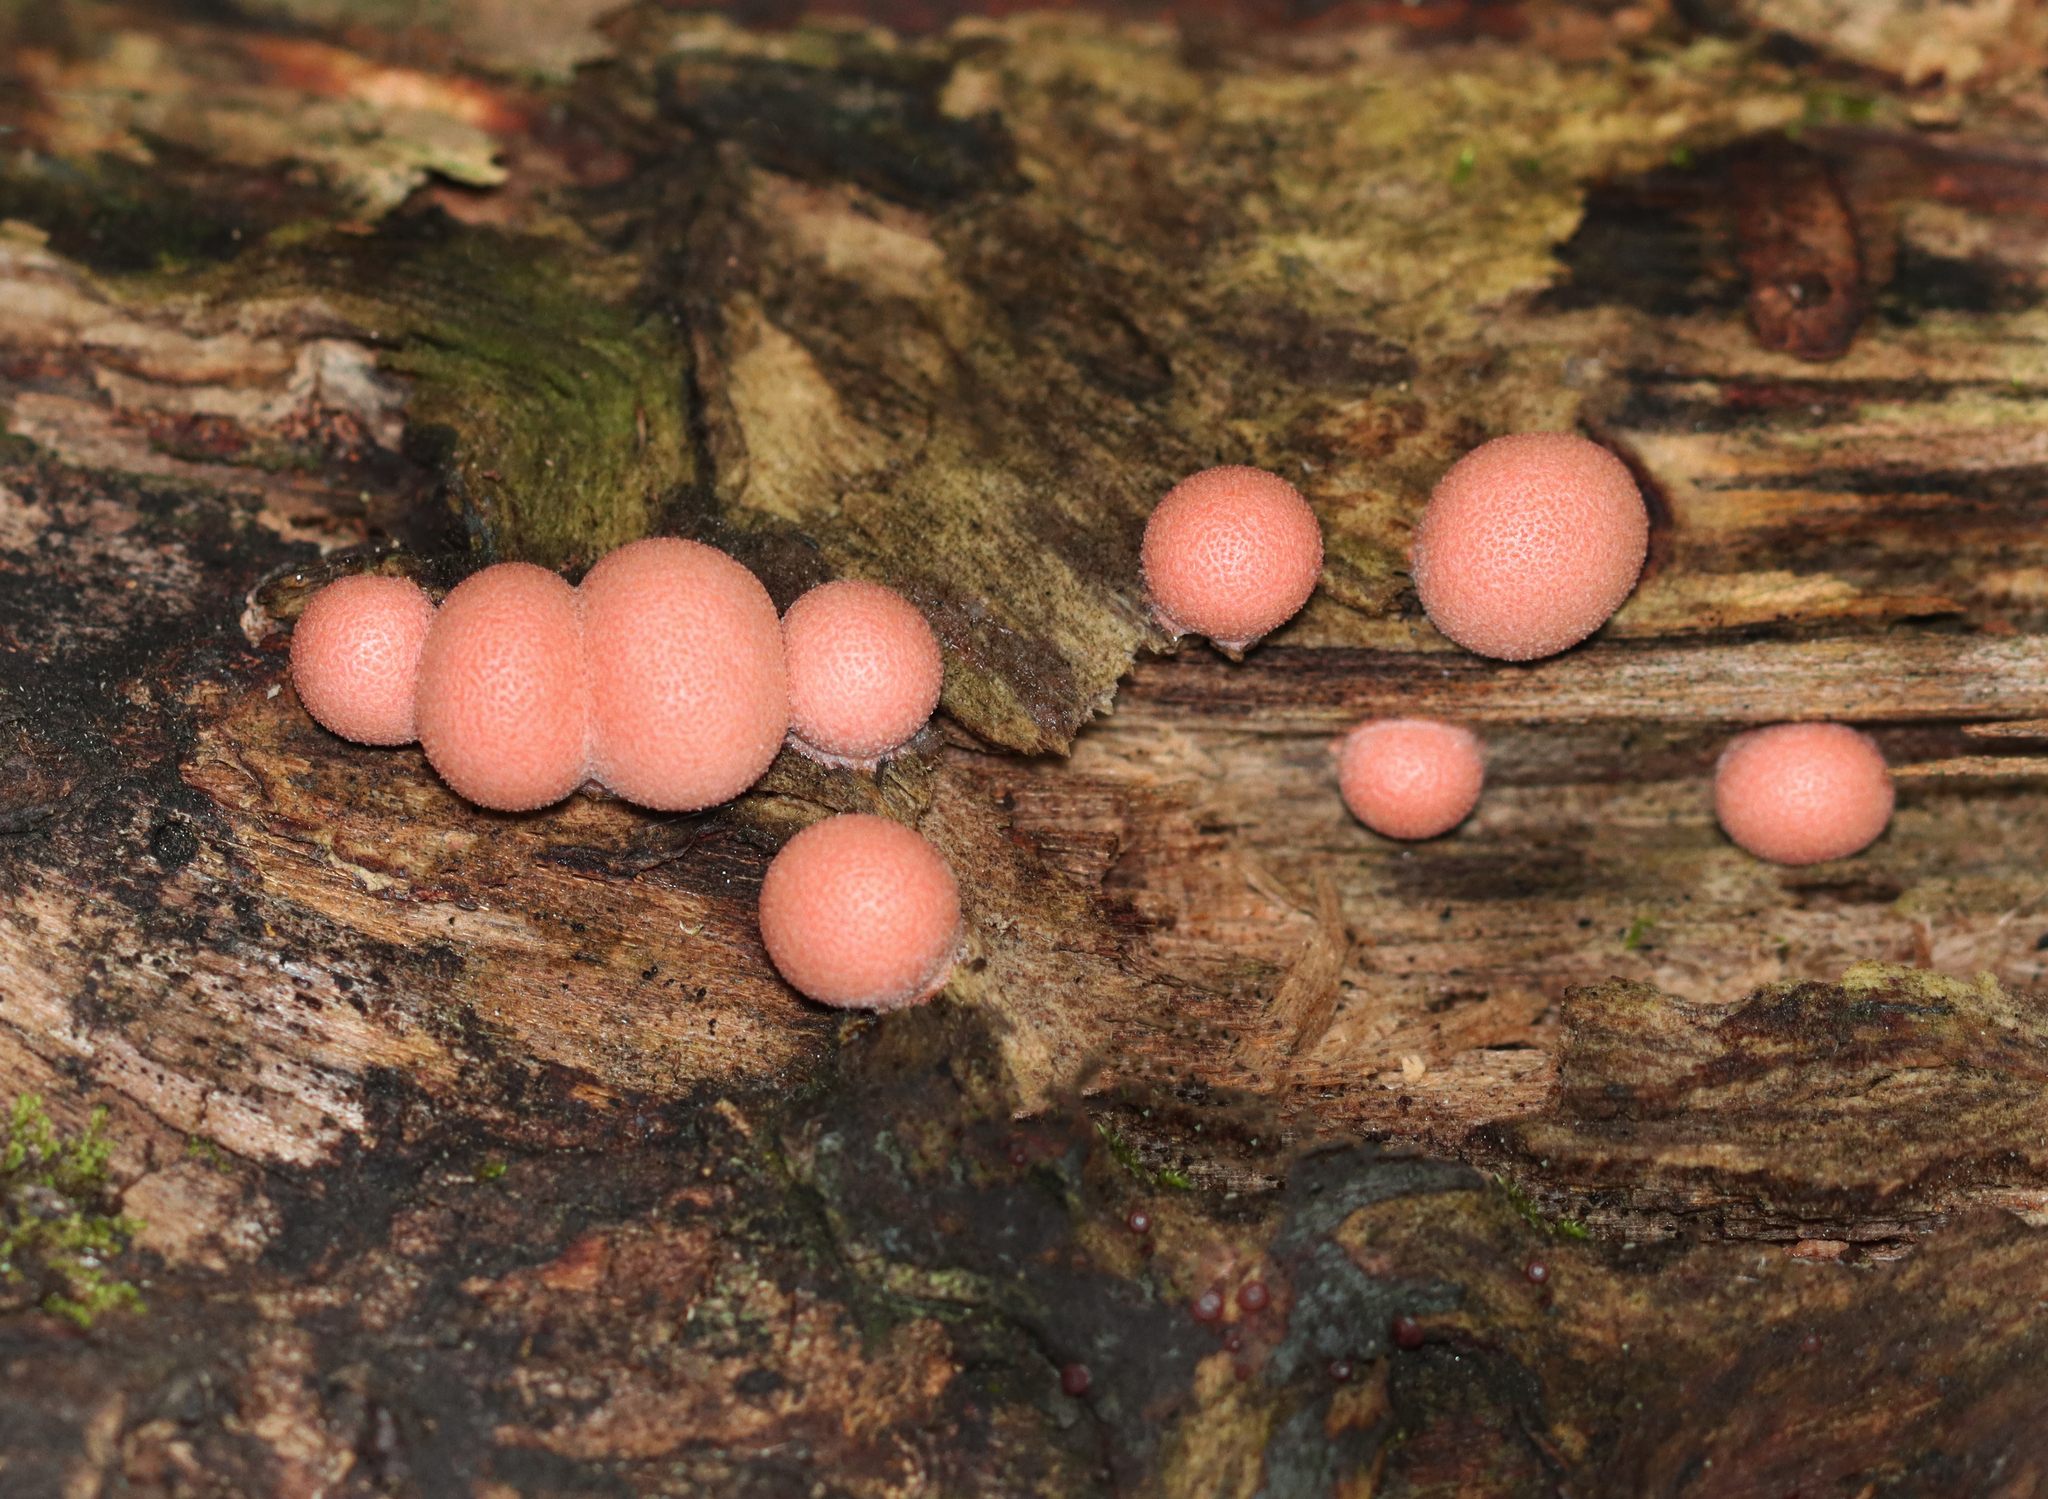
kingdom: Protozoa
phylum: Mycetozoa
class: Myxomycetes
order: Cribrariales
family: Tubiferaceae
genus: Lycogala
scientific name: Lycogala epidendrum
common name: Wolf's milk
